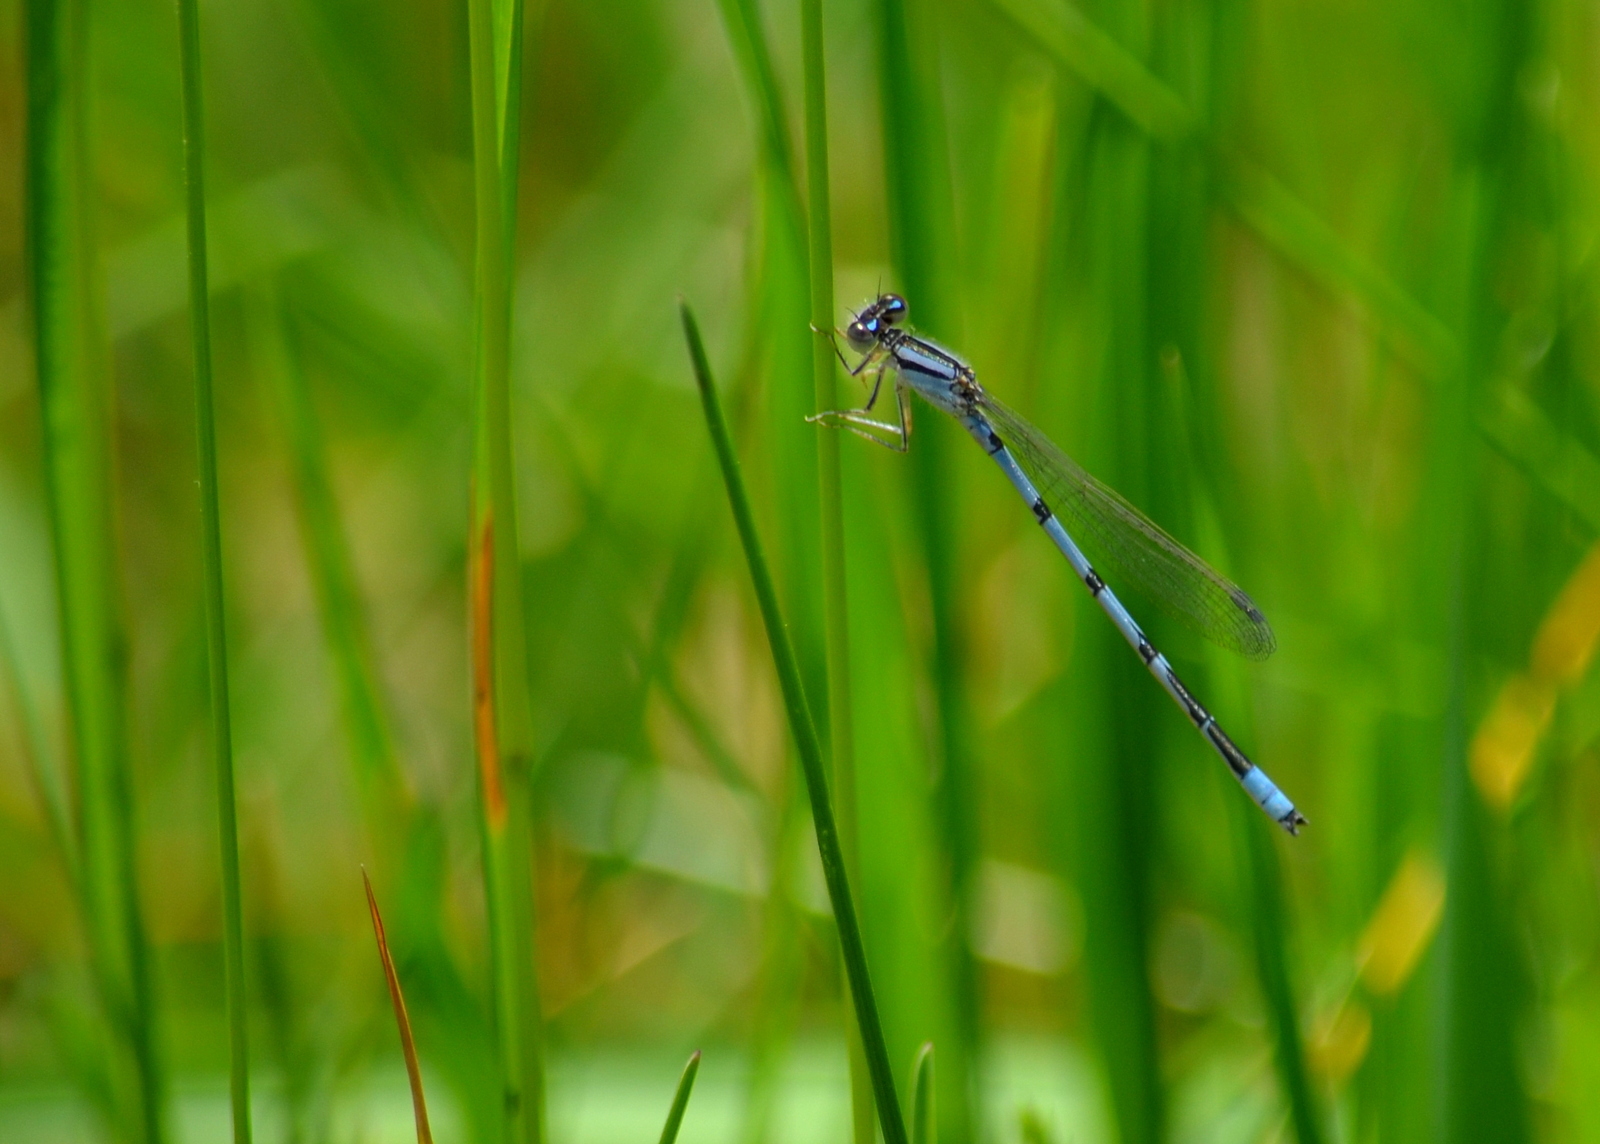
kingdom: Animalia
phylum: Arthropoda
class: Insecta
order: Odonata
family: Coenagrionidae
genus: Enallagma
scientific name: Enallagma civile
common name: Damselfly
